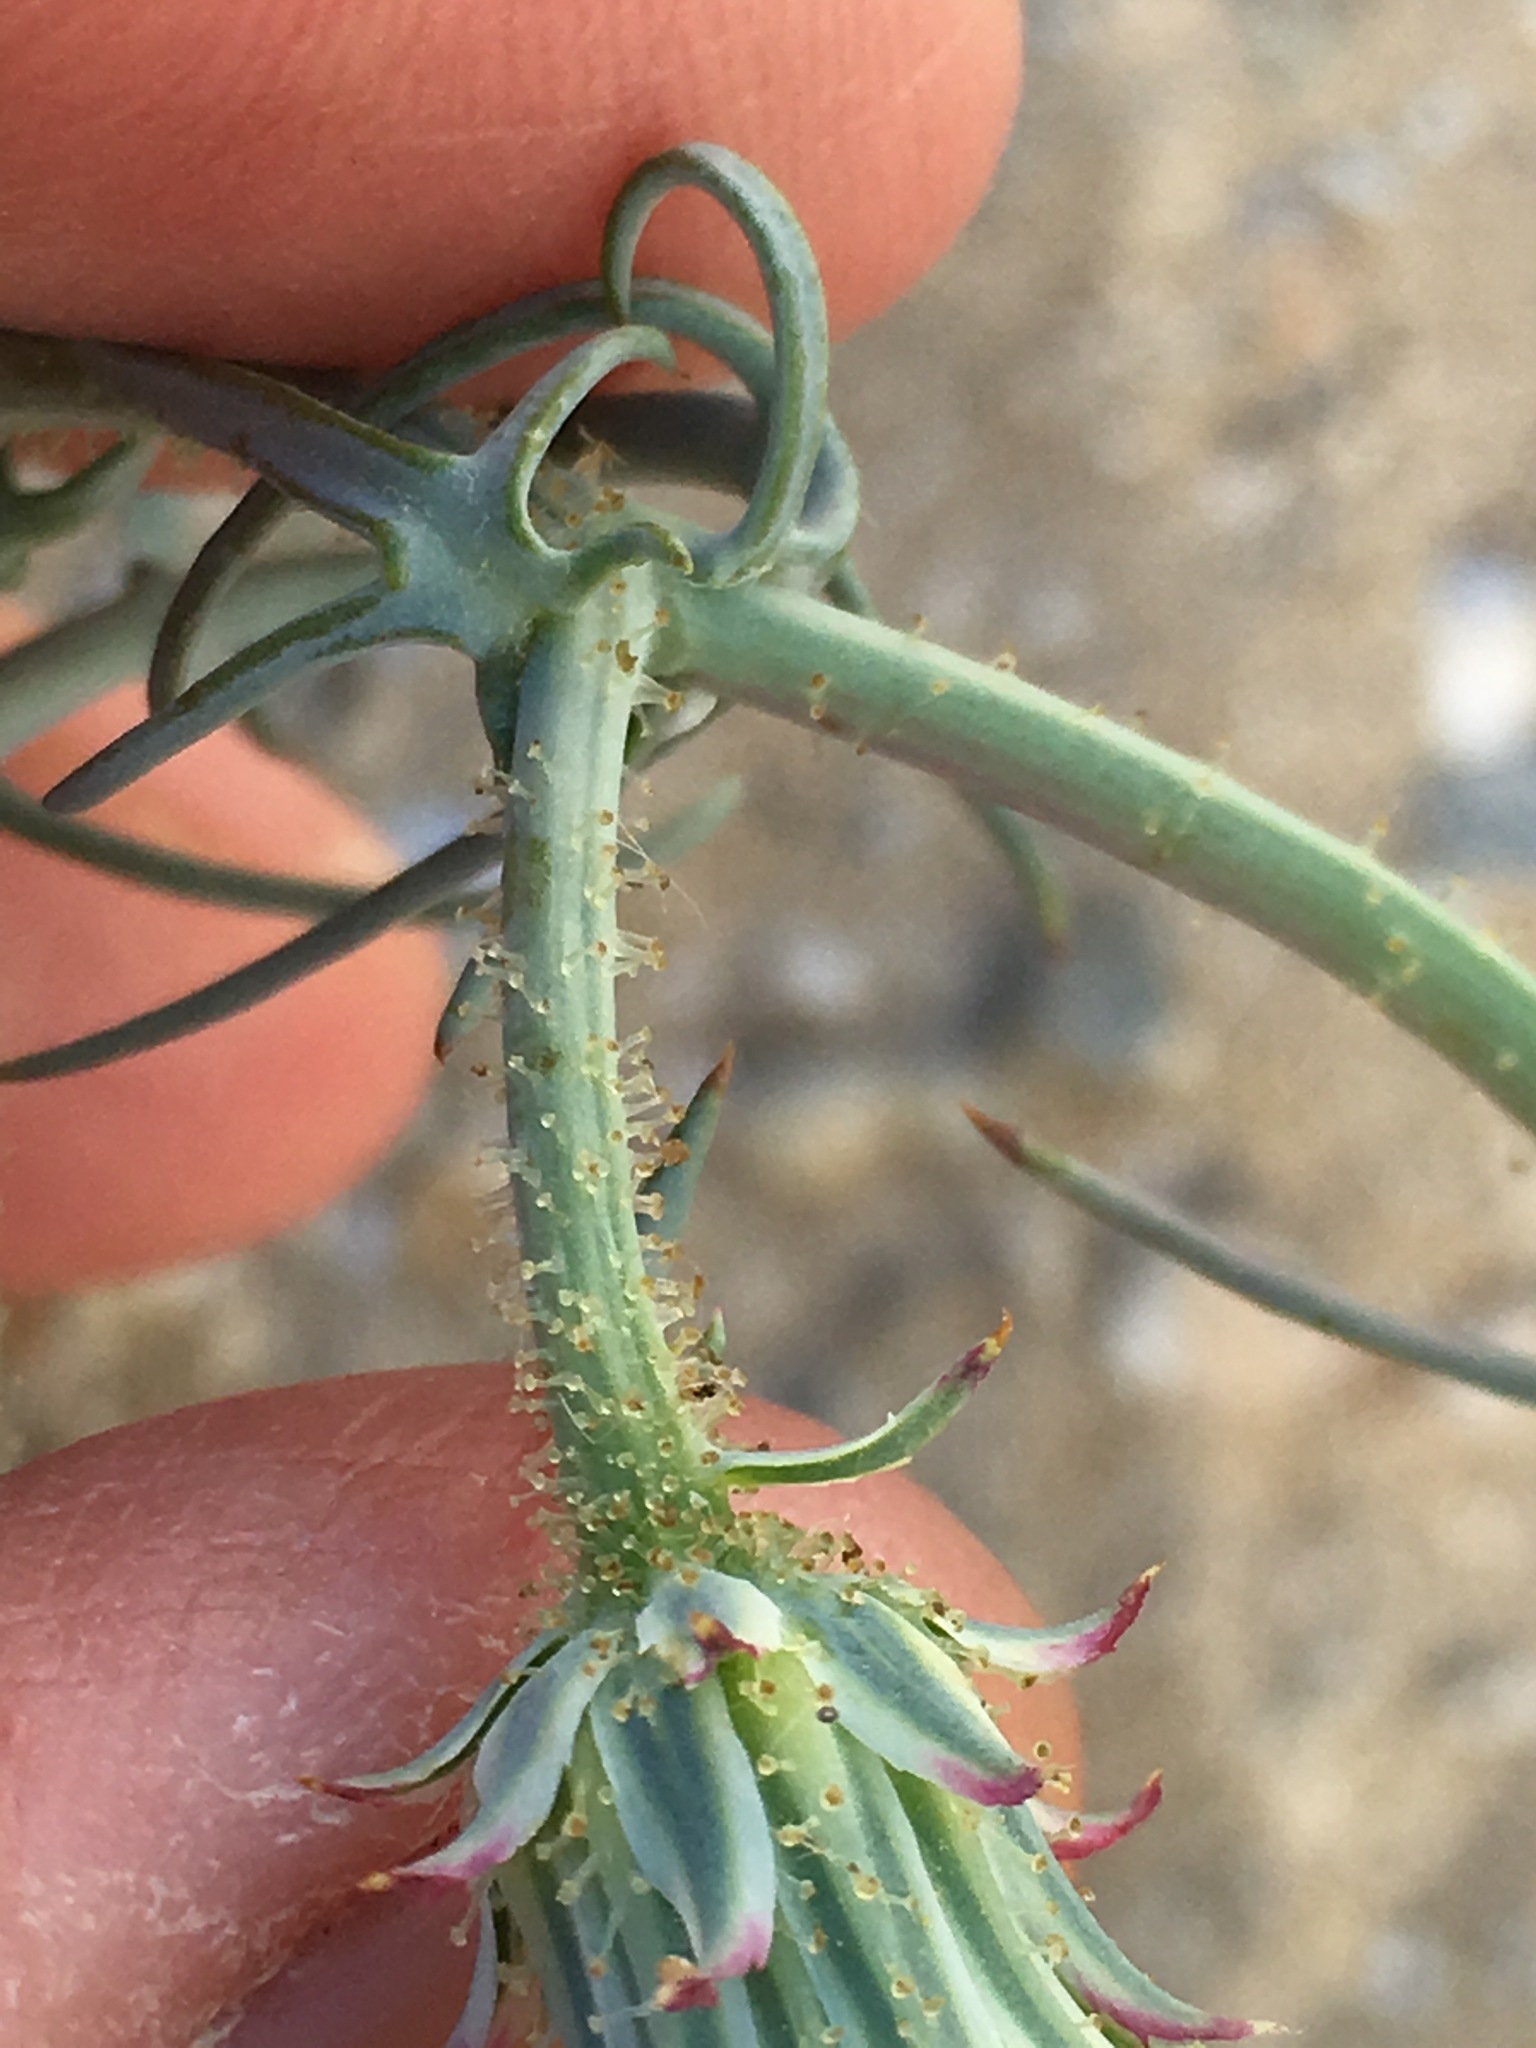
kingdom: Plantae
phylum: Tracheophyta
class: Magnoliopsida
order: Asterales
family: Asteraceae
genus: Calycoseris
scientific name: Calycoseris wrightii
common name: White tackstem
